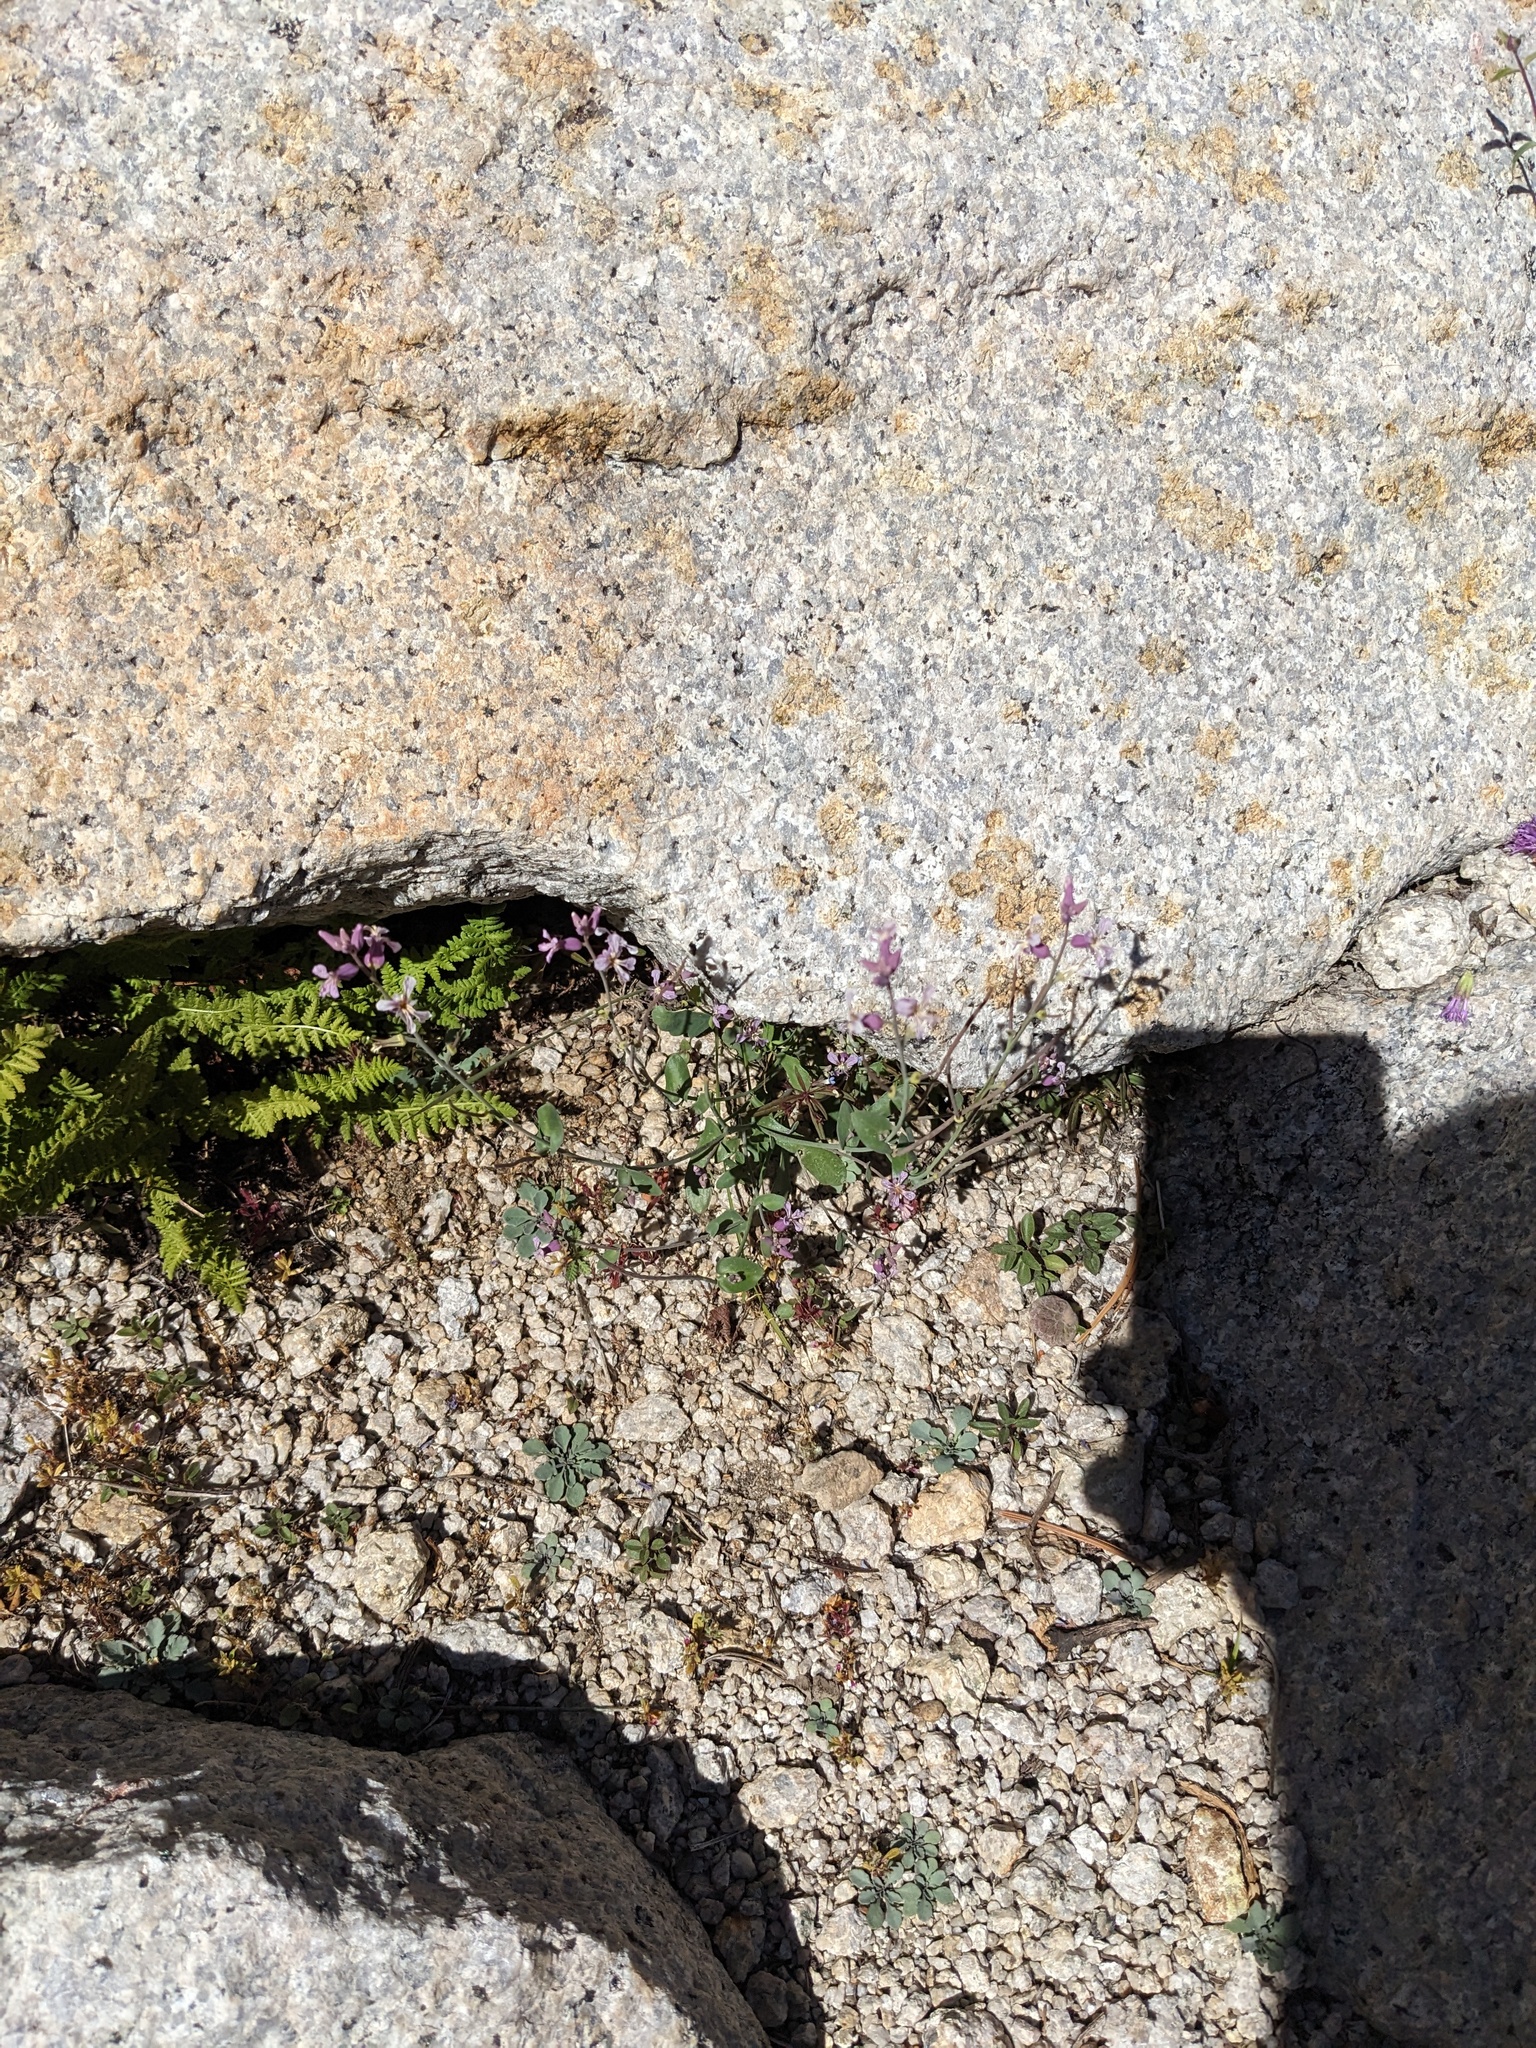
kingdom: Plantae
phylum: Tracheophyta
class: Magnoliopsida
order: Brassicales
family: Brassicaceae
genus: Streptanthus
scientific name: Streptanthus gracilis
